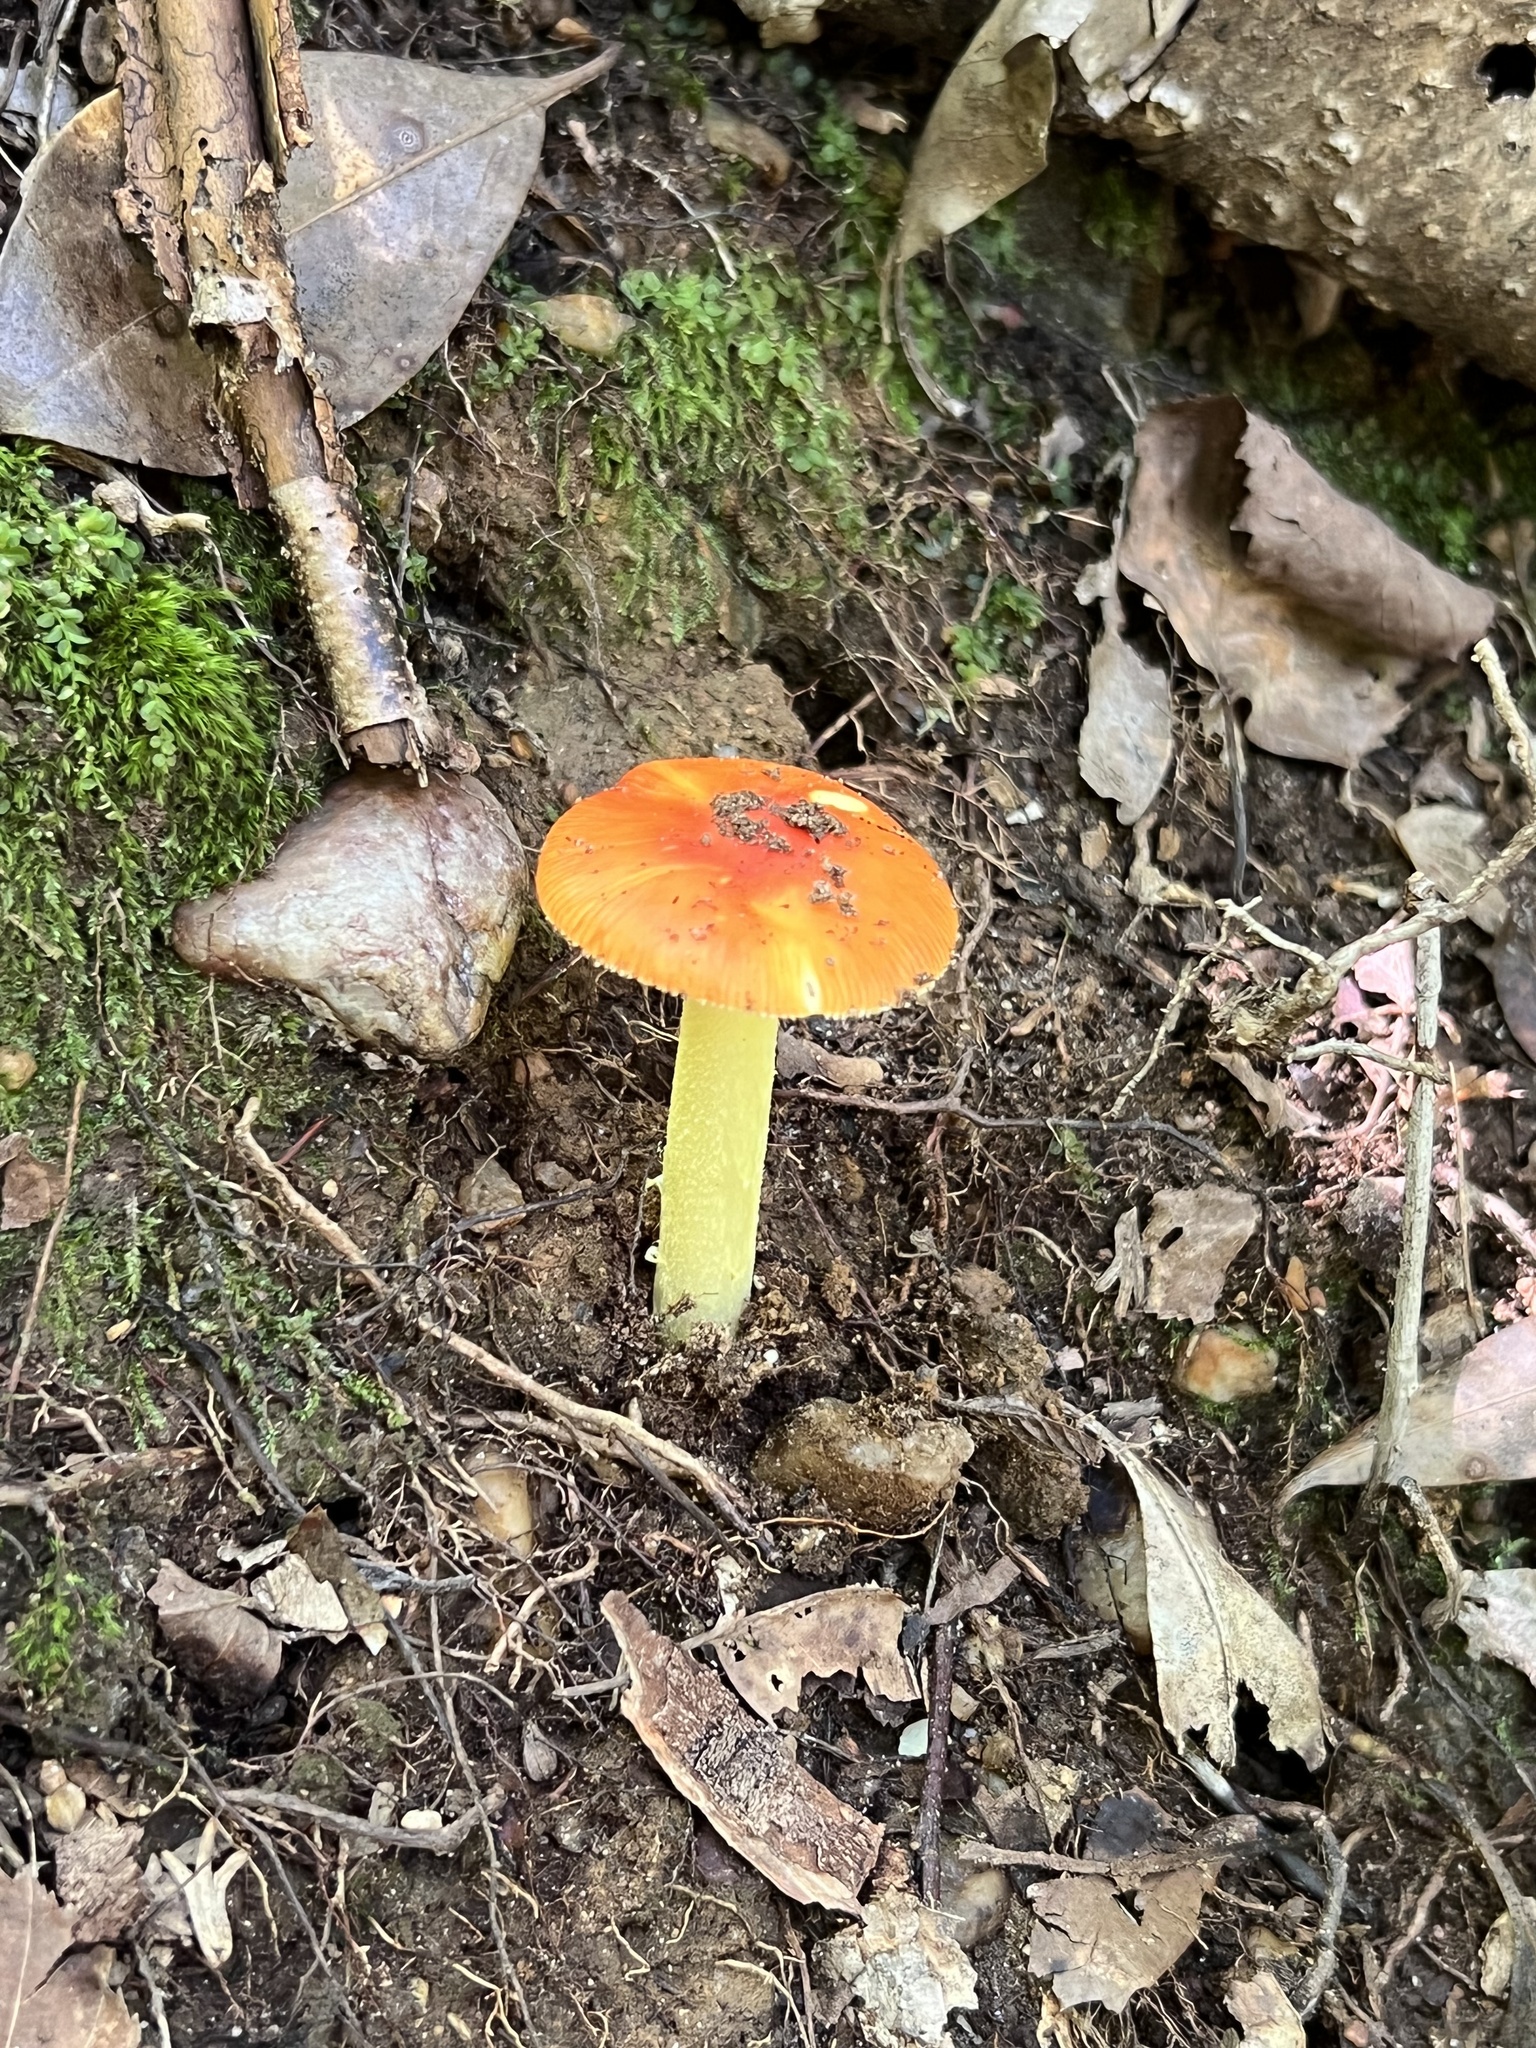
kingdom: Fungi
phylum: Basidiomycota
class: Agaricomycetes
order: Agaricales
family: Amanitaceae
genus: Amanita
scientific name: Amanita parcivolvata
